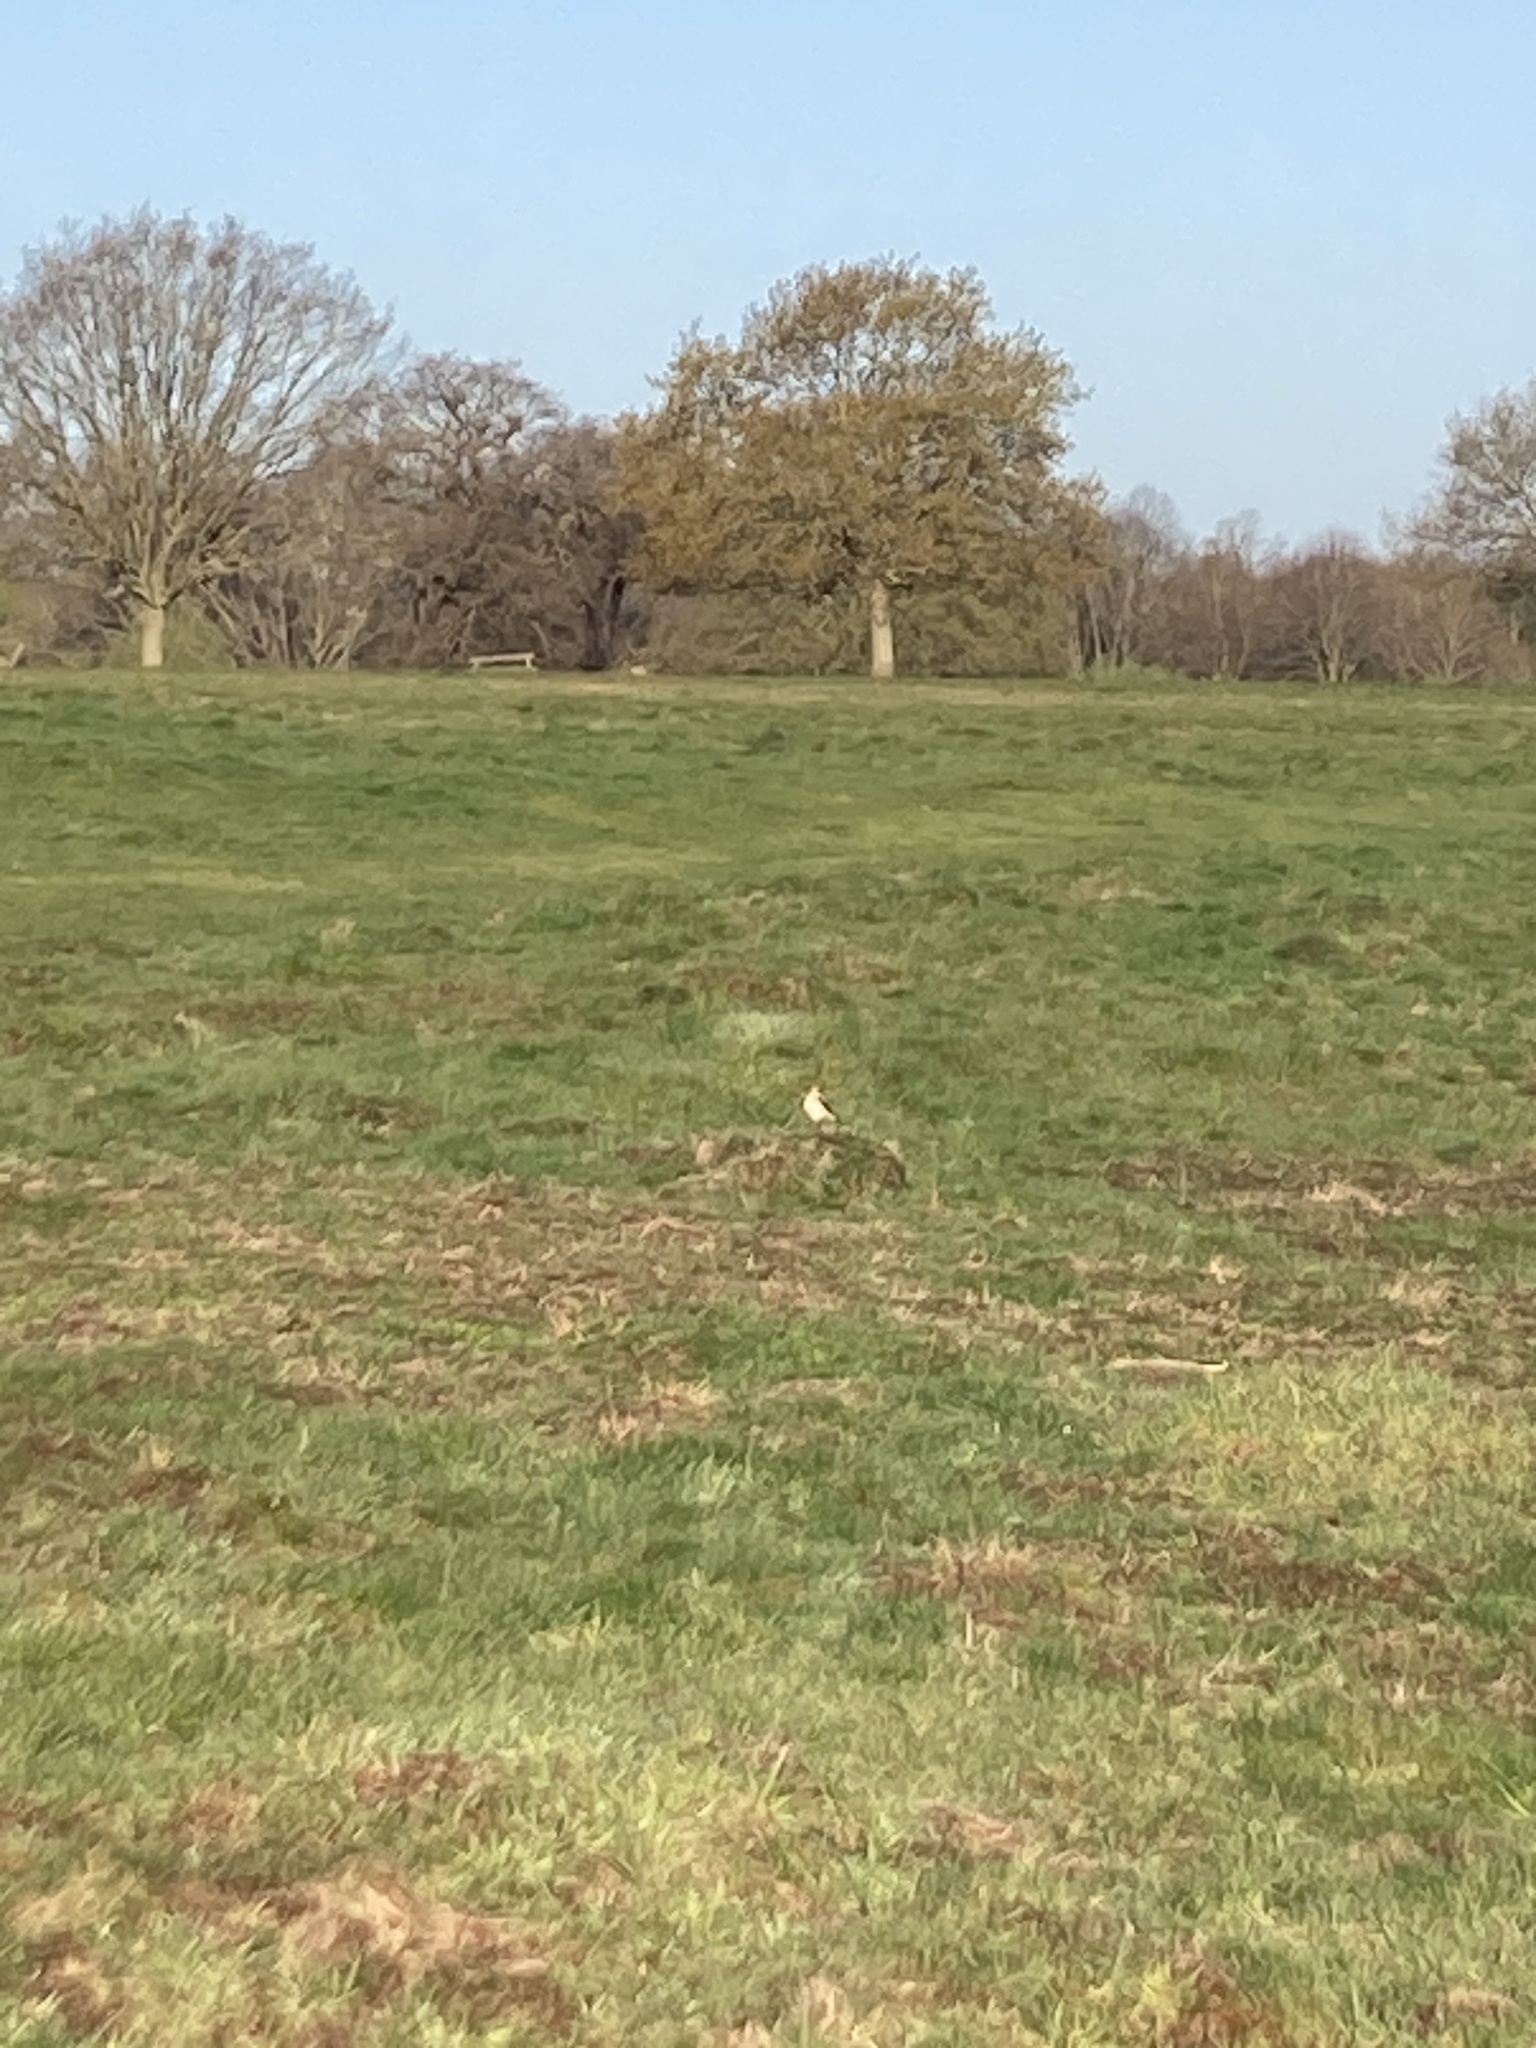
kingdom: Animalia
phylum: Chordata
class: Aves
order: Passeriformes
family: Alaudidae
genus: Alauda
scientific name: Alauda arvensis
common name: Eurasian skylark
